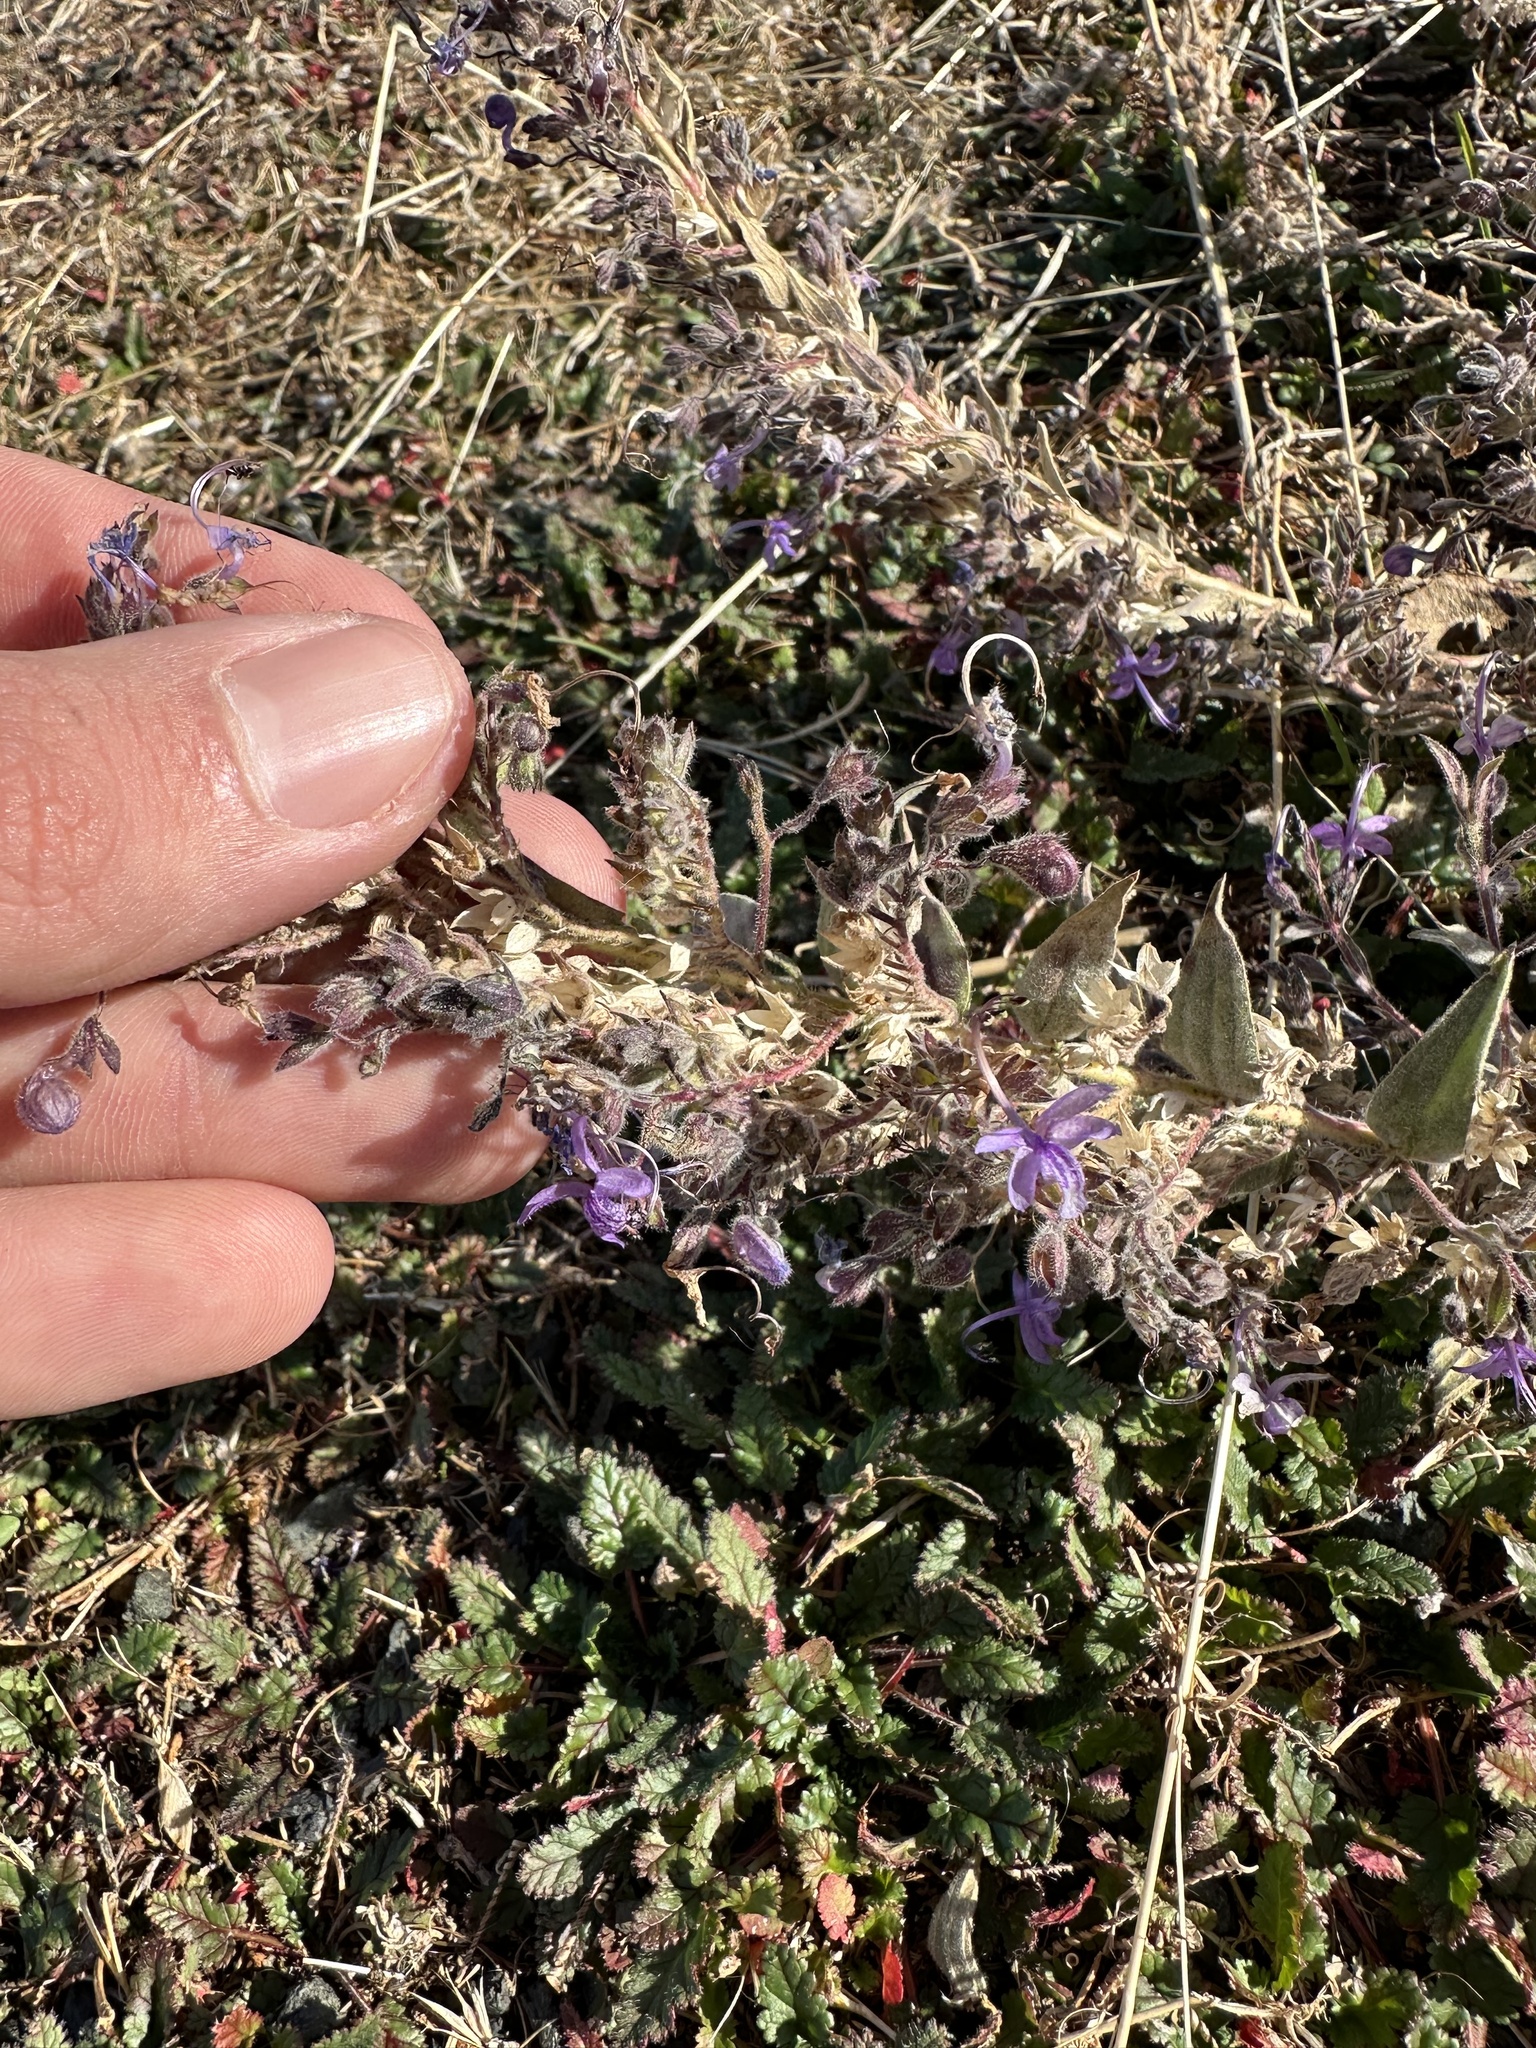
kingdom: Plantae
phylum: Tracheophyta
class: Magnoliopsida
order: Lamiales
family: Lamiaceae
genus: Trichostema
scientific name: Trichostema lanceolatum
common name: Vinegar-weed
